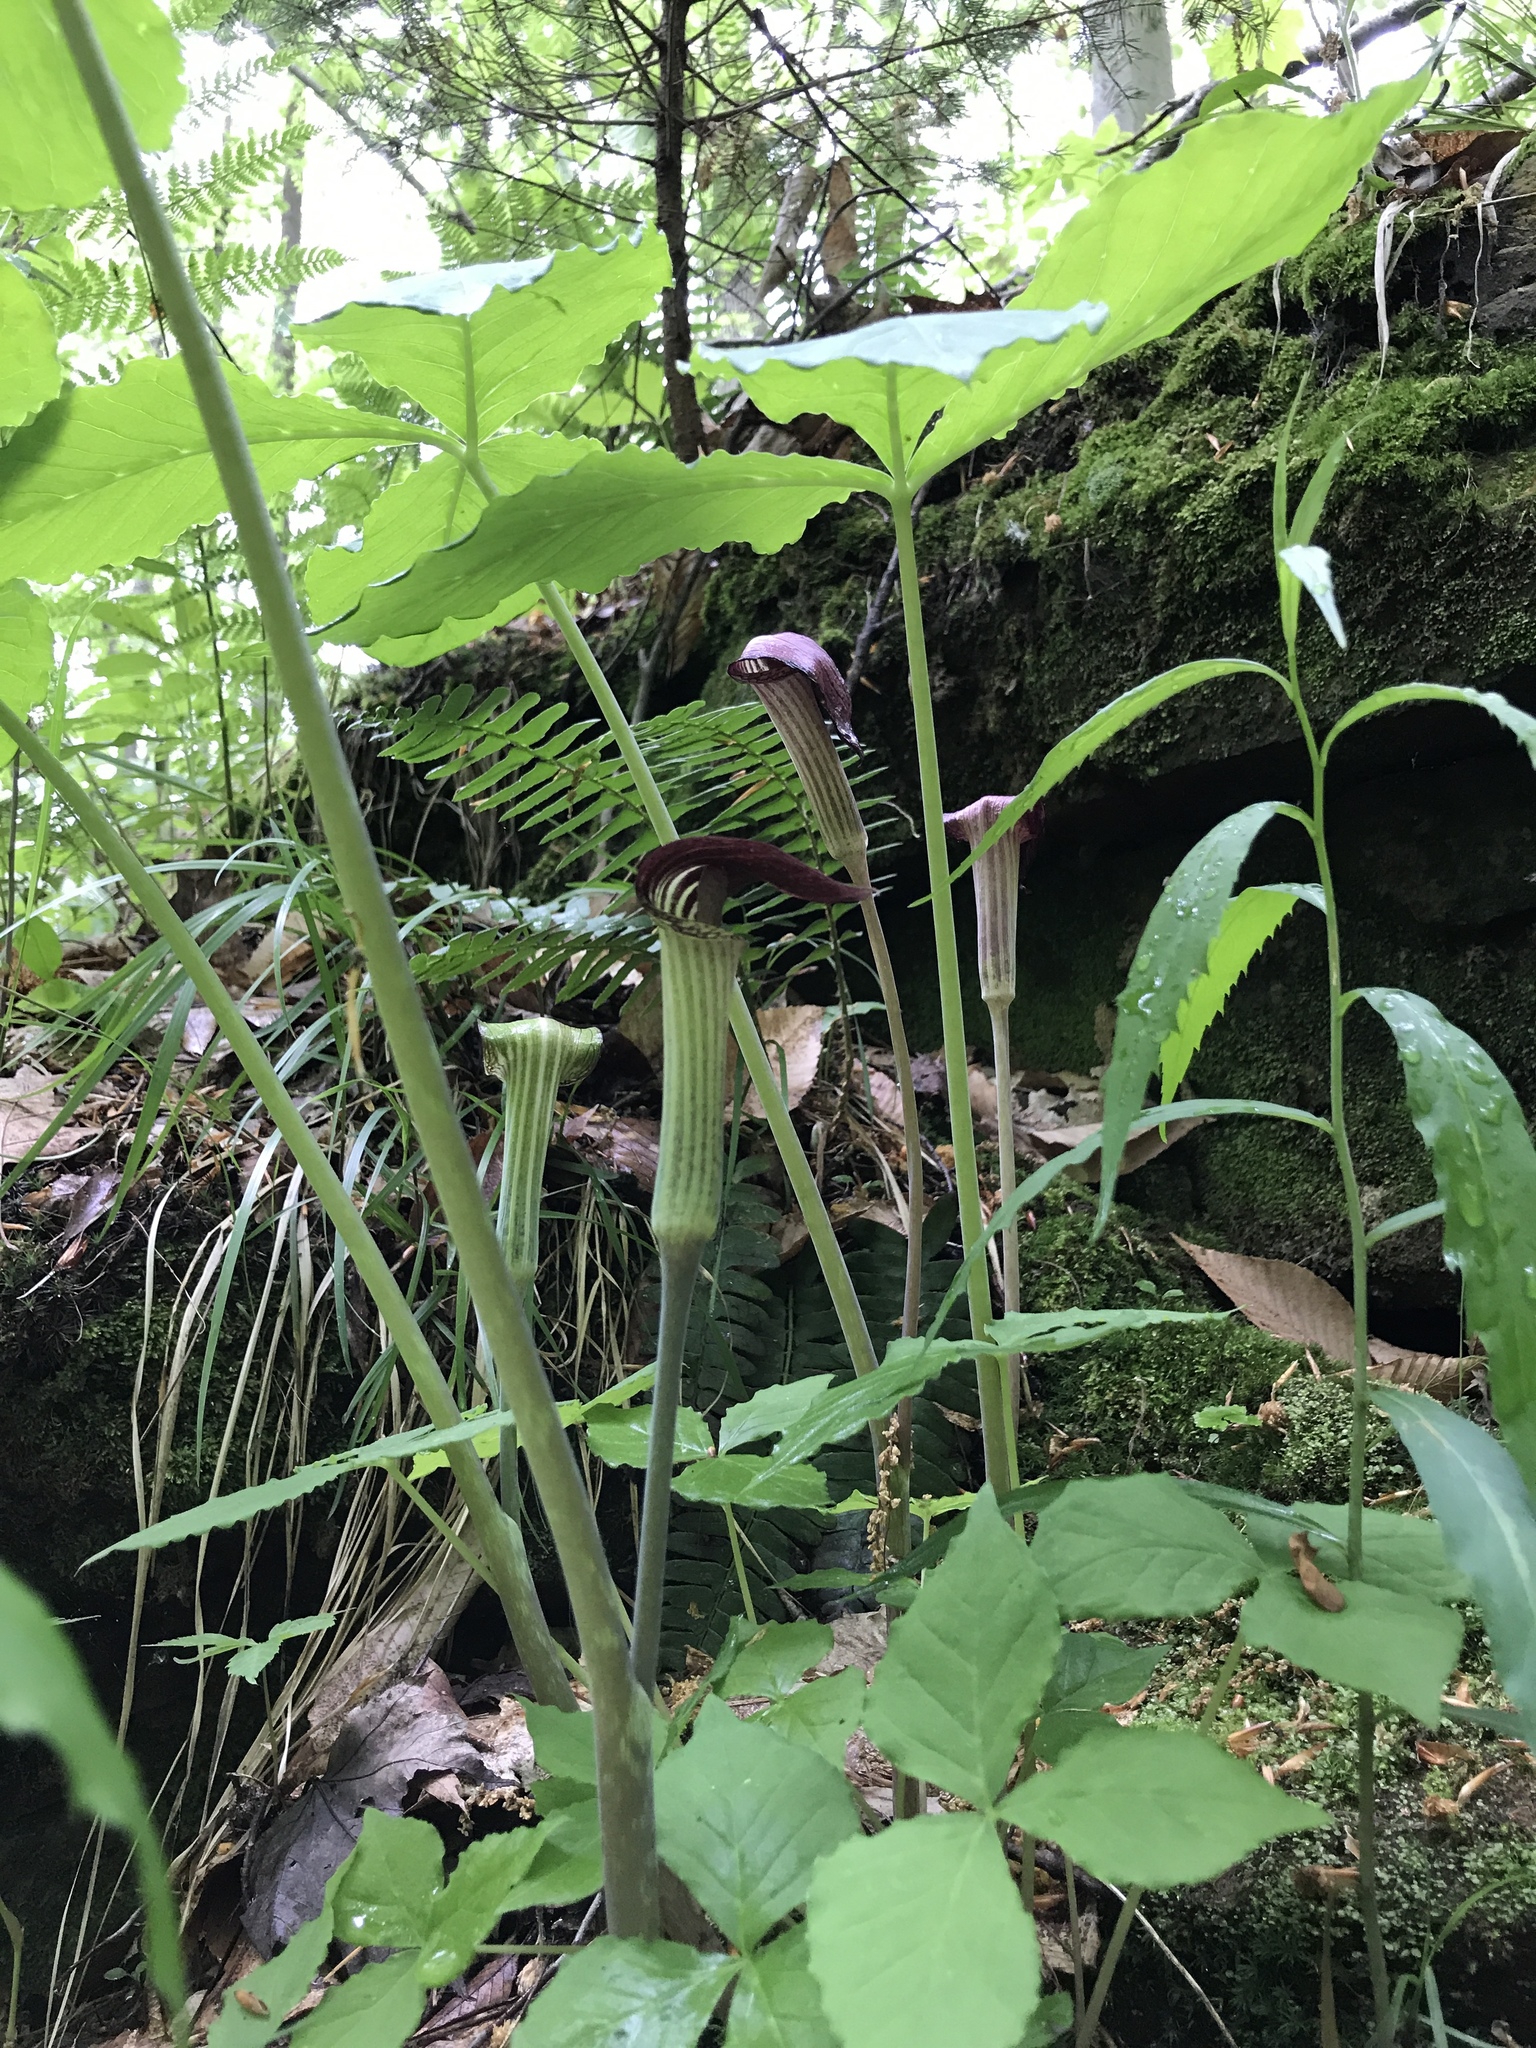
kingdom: Plantae
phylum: Tracheophyta
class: Liliopsida
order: Alismatales
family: Araceae
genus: Arisaema
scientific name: Arisaema triphyllum
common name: Jack-in-the-pulpit
